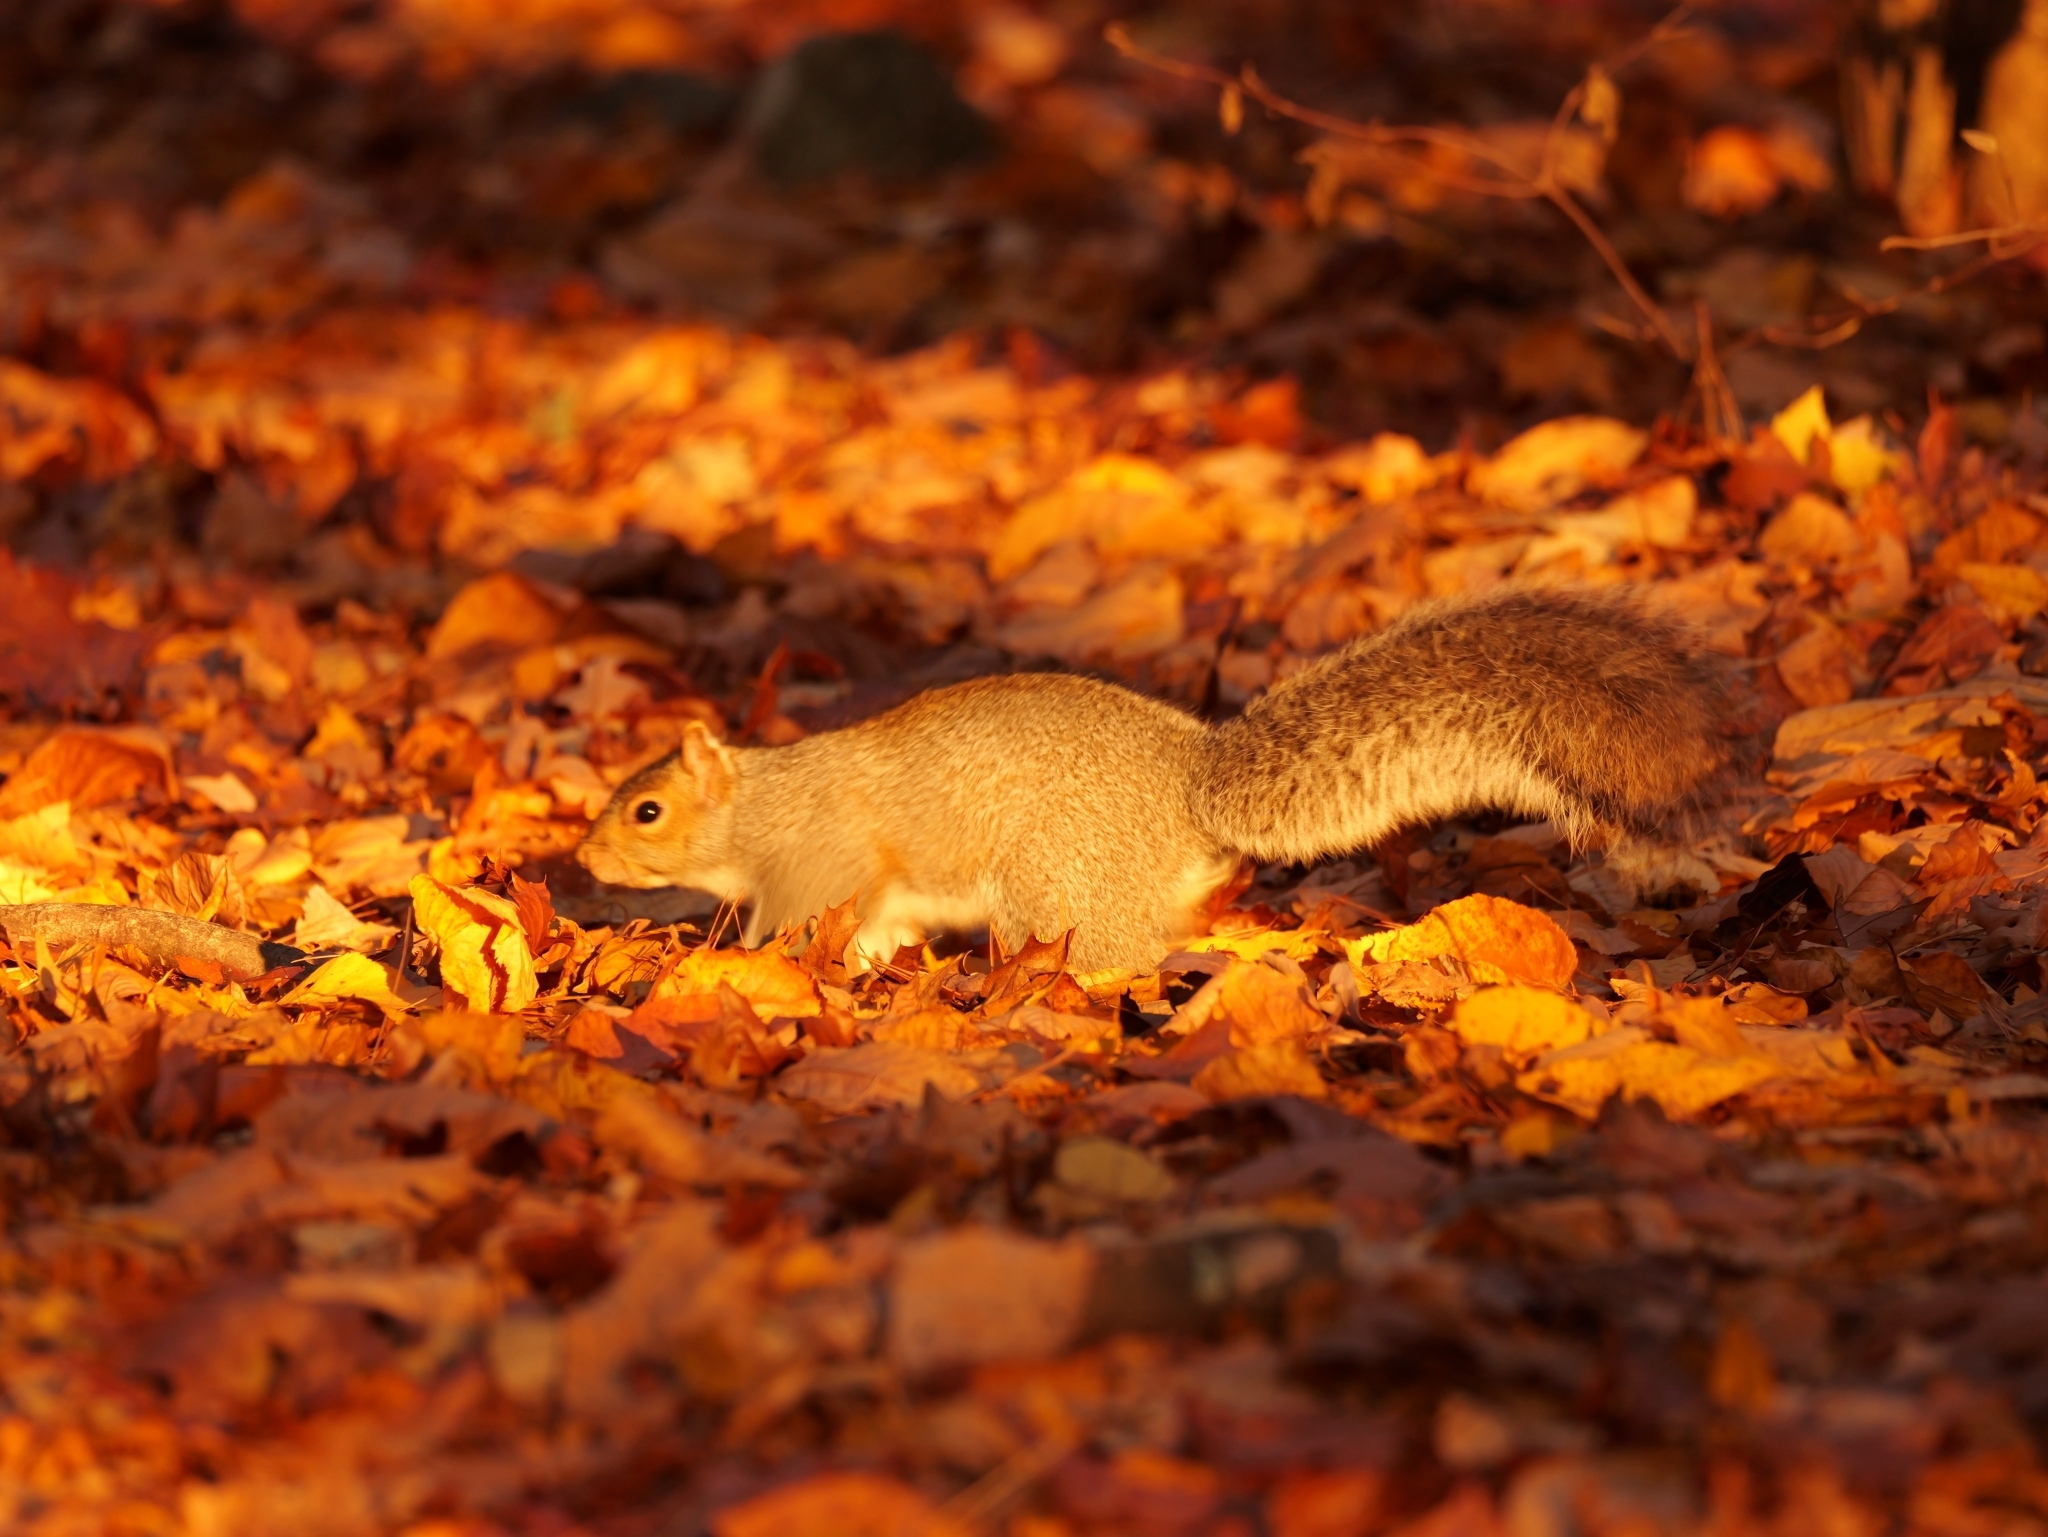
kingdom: Animalia
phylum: Chordata
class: Mammalia
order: Rodentia
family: Sciuridae
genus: Sciurus
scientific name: Sciurus carolinensis
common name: Eastern gray squirrel
